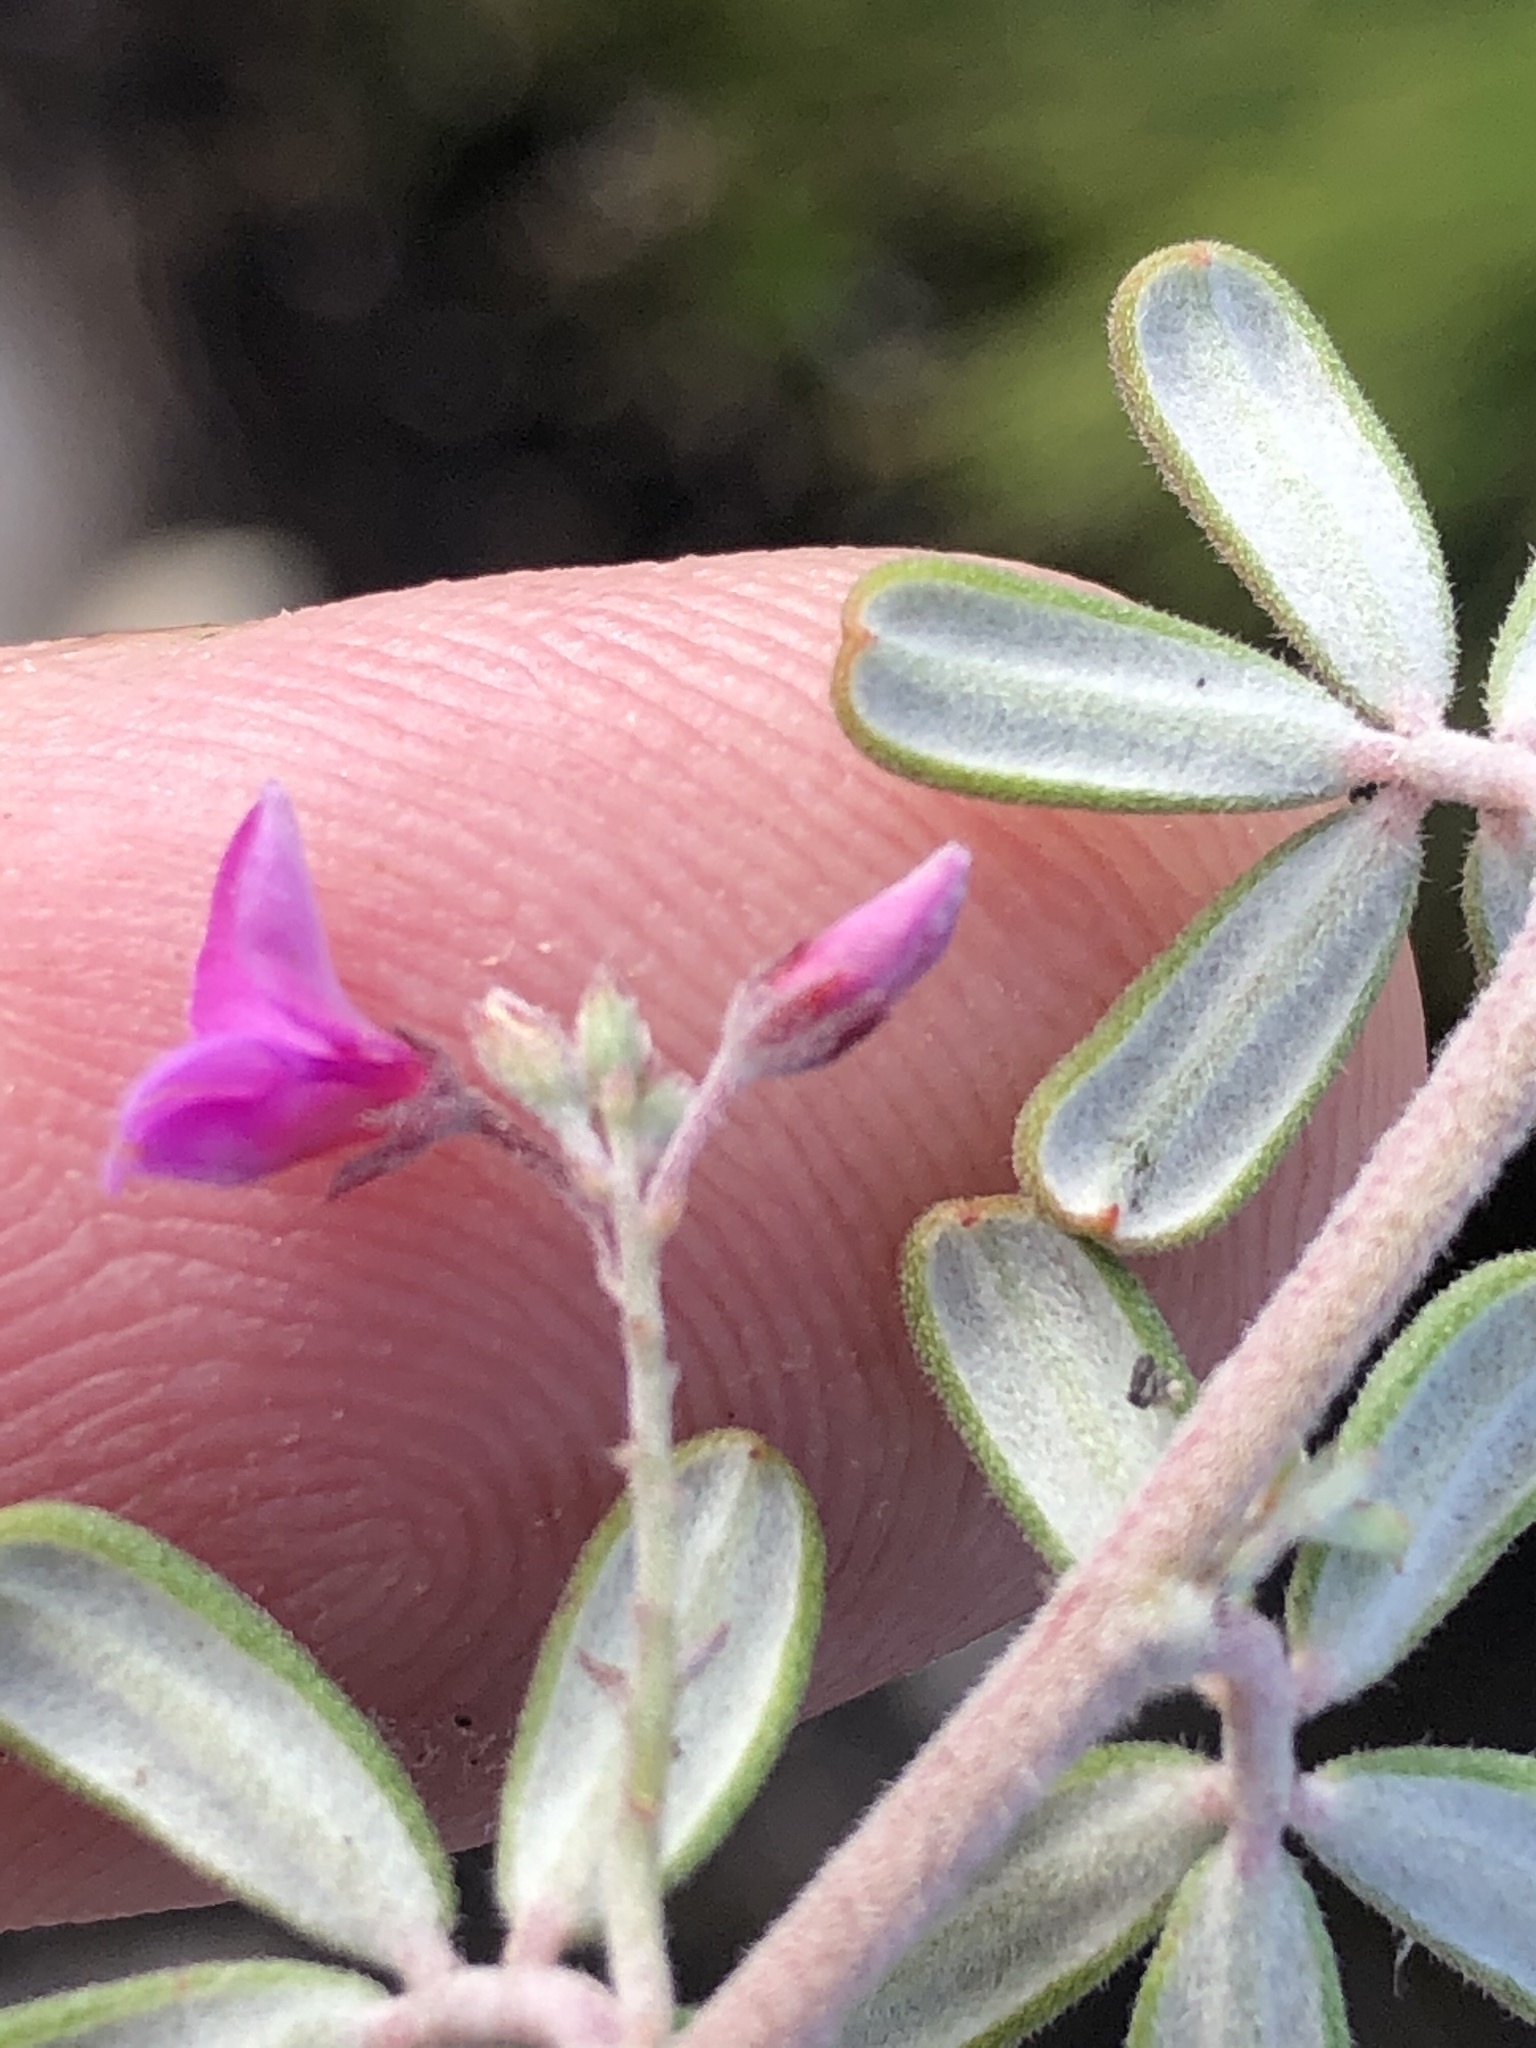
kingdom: Plantae
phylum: Tracheophyta
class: Magnoliopsida
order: Fabales
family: Fabaceae
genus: Indigofera
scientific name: Indigofera
